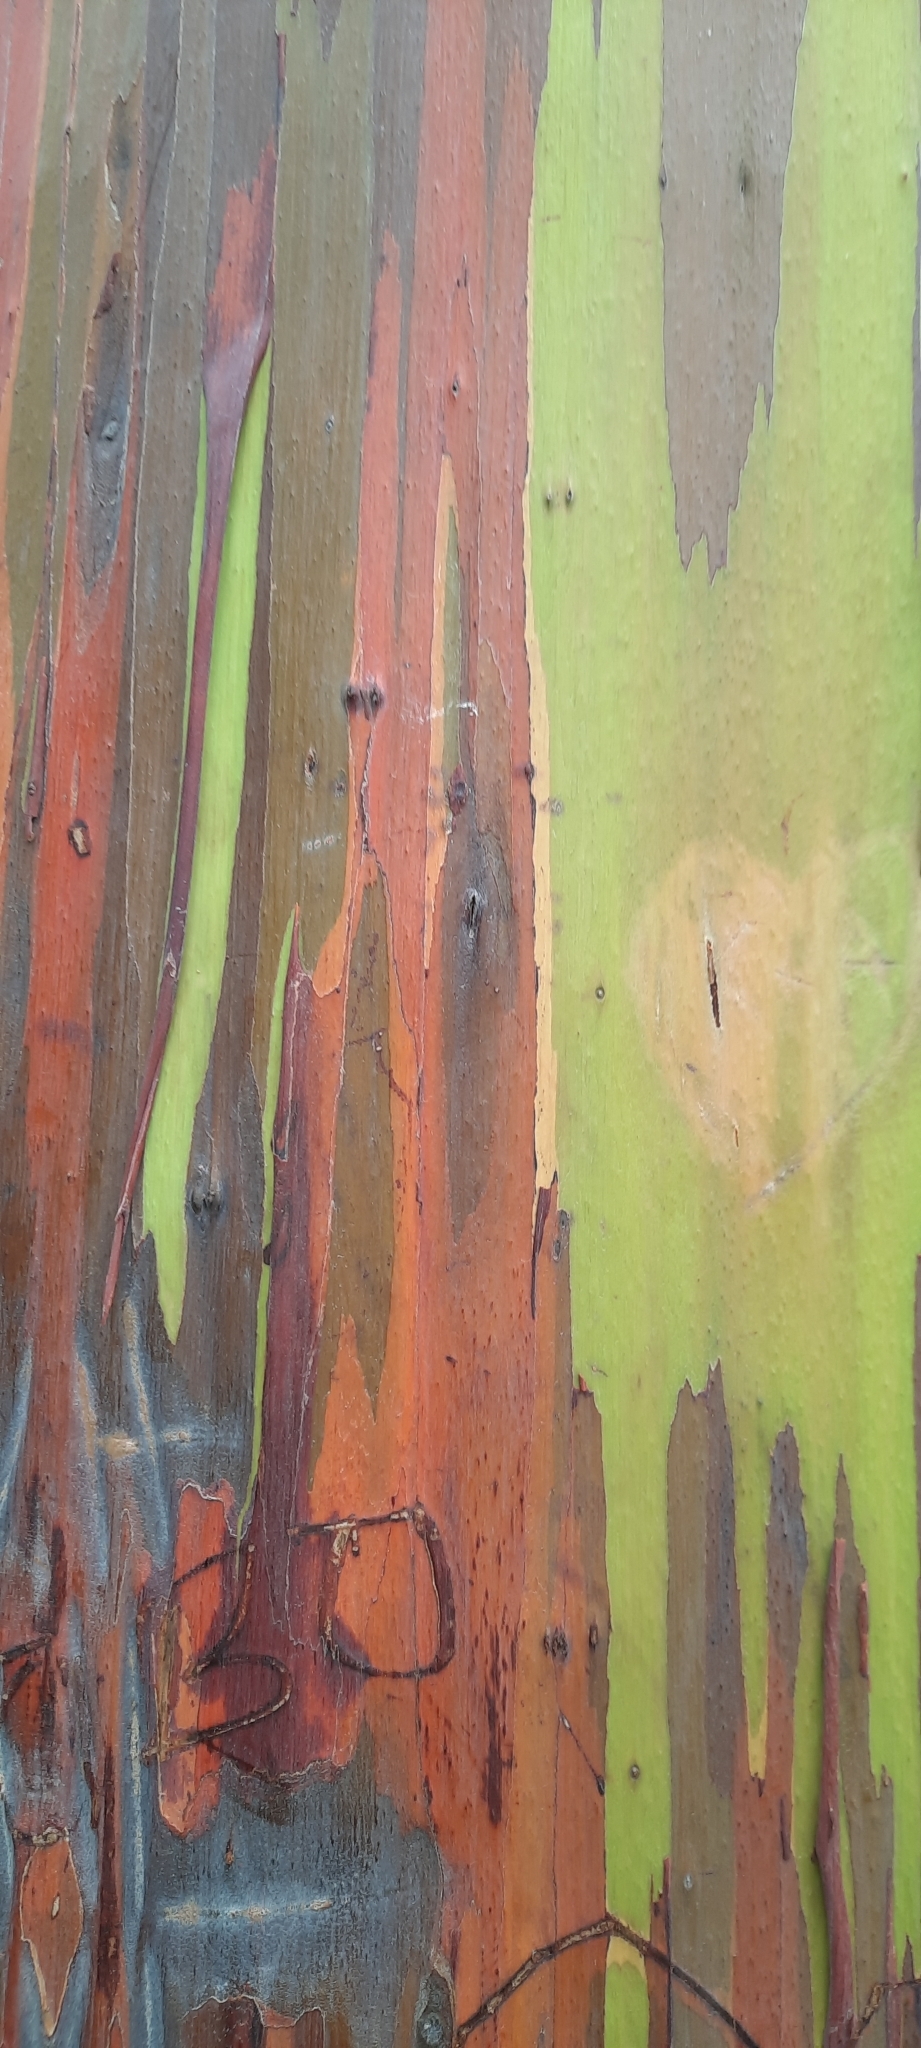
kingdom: Plantae
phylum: Tracheophyta
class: Magnoliopsida
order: Myrtales
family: Myrtaceae
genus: Eucalyptus
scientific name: Eucalyptus deglupta
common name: Mindanao gum
